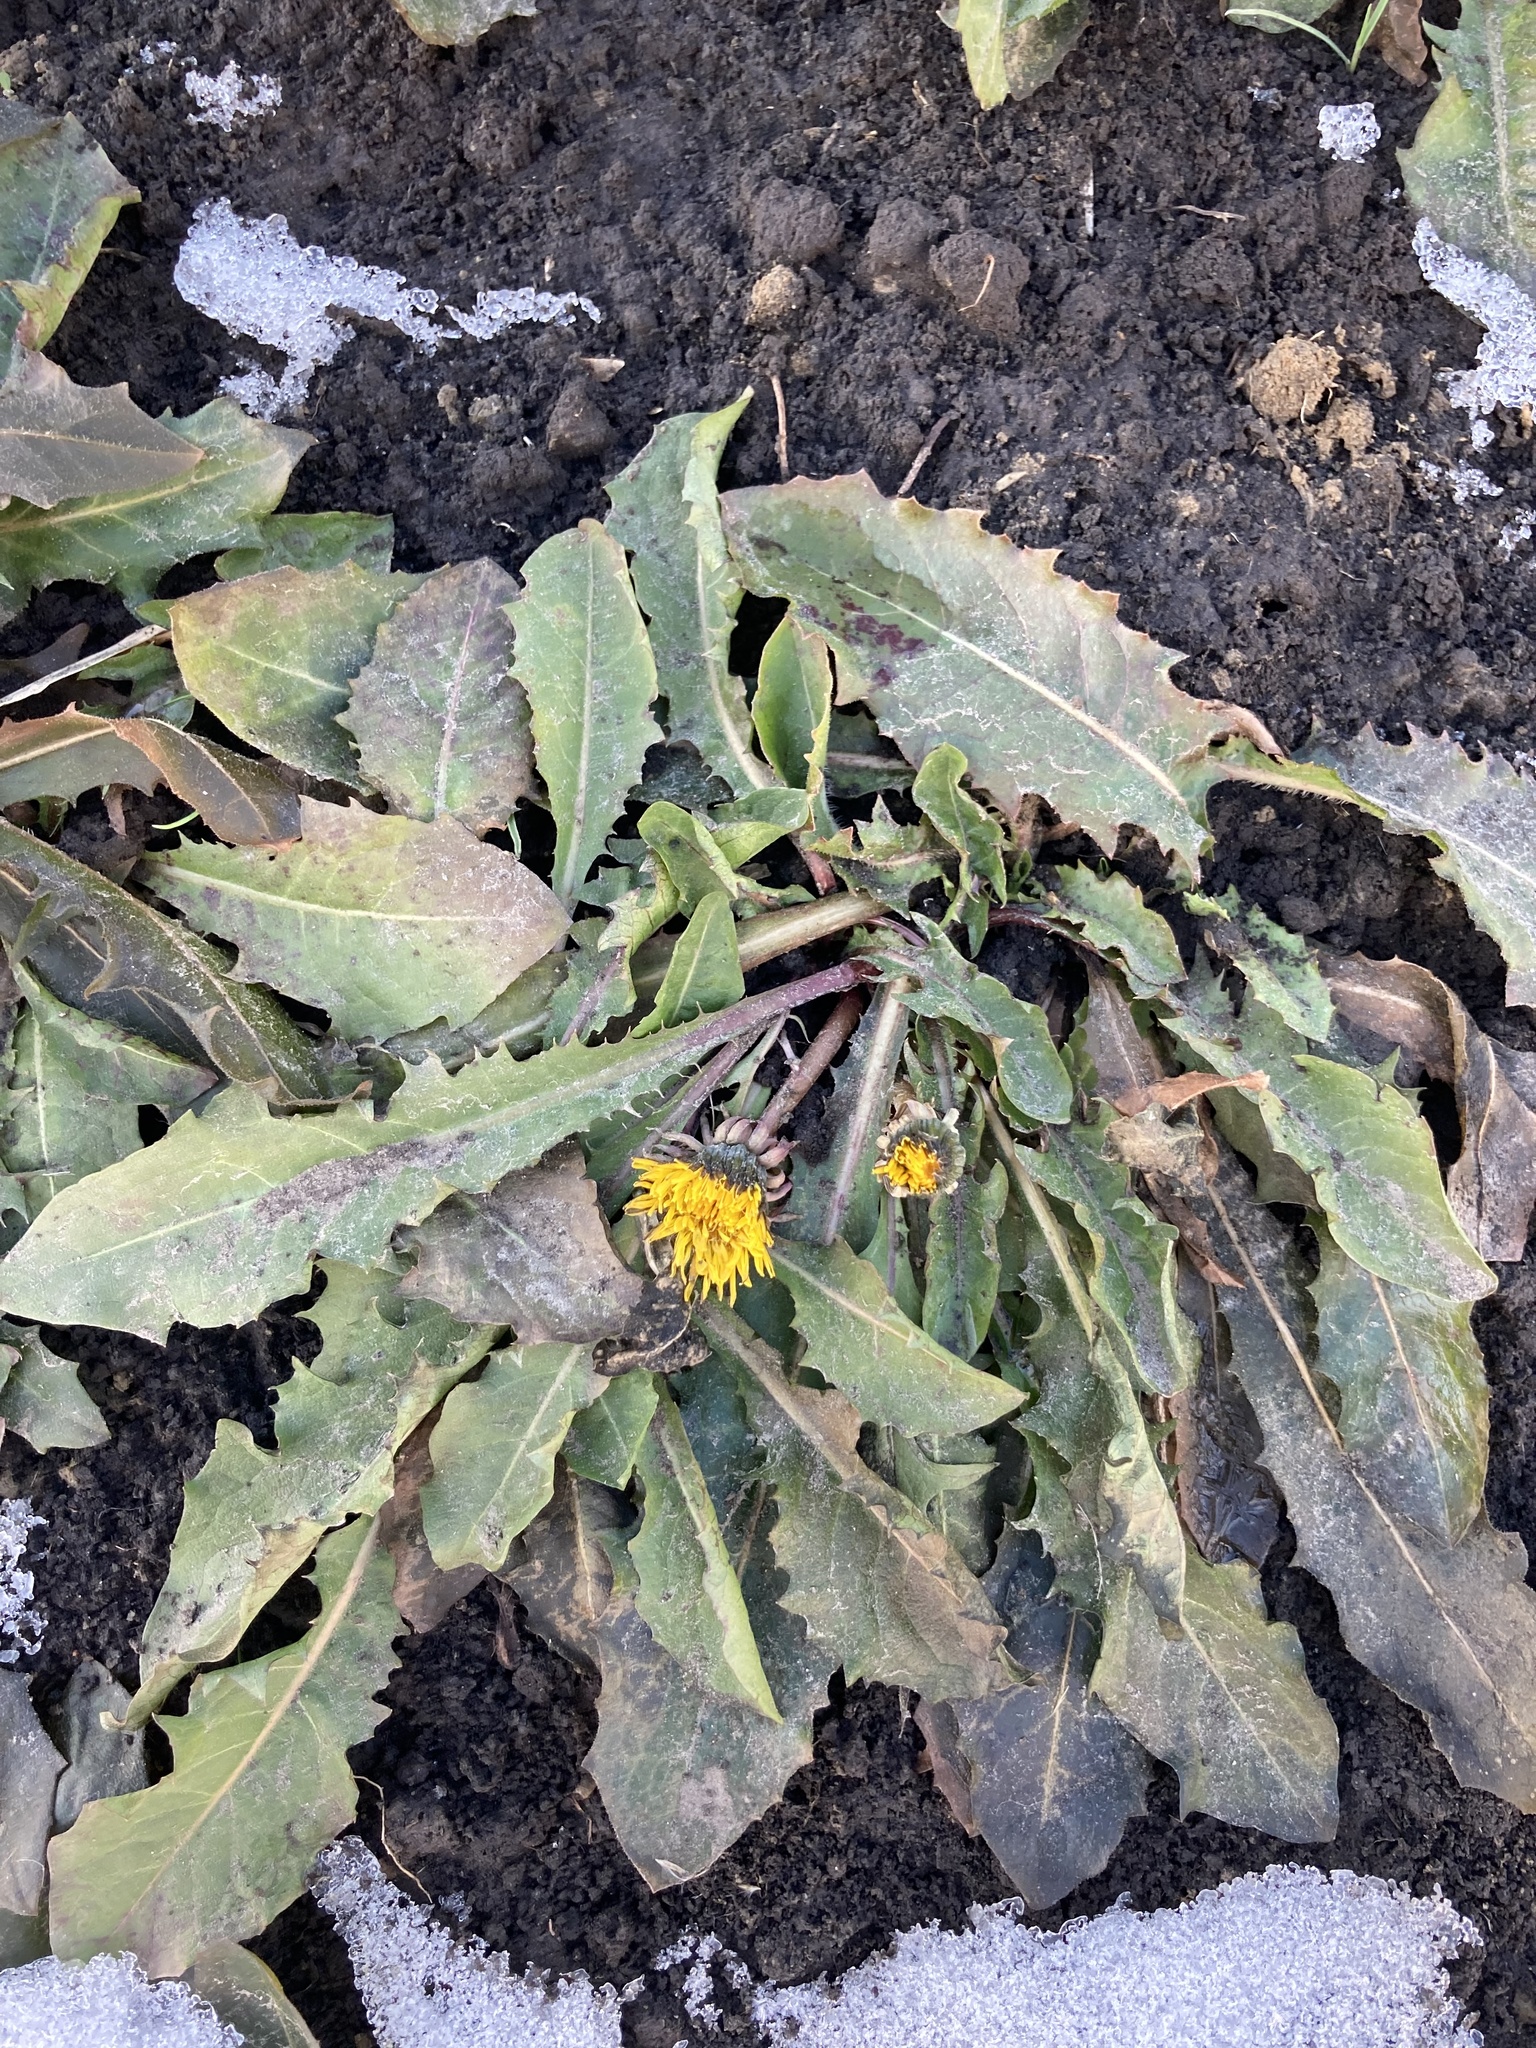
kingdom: Plantae
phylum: Tracheophyta
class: Magnoliopsida
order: Asterales
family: Asteraceae
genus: Taraxacum
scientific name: Taraxacum officinale
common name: Common dandelion
